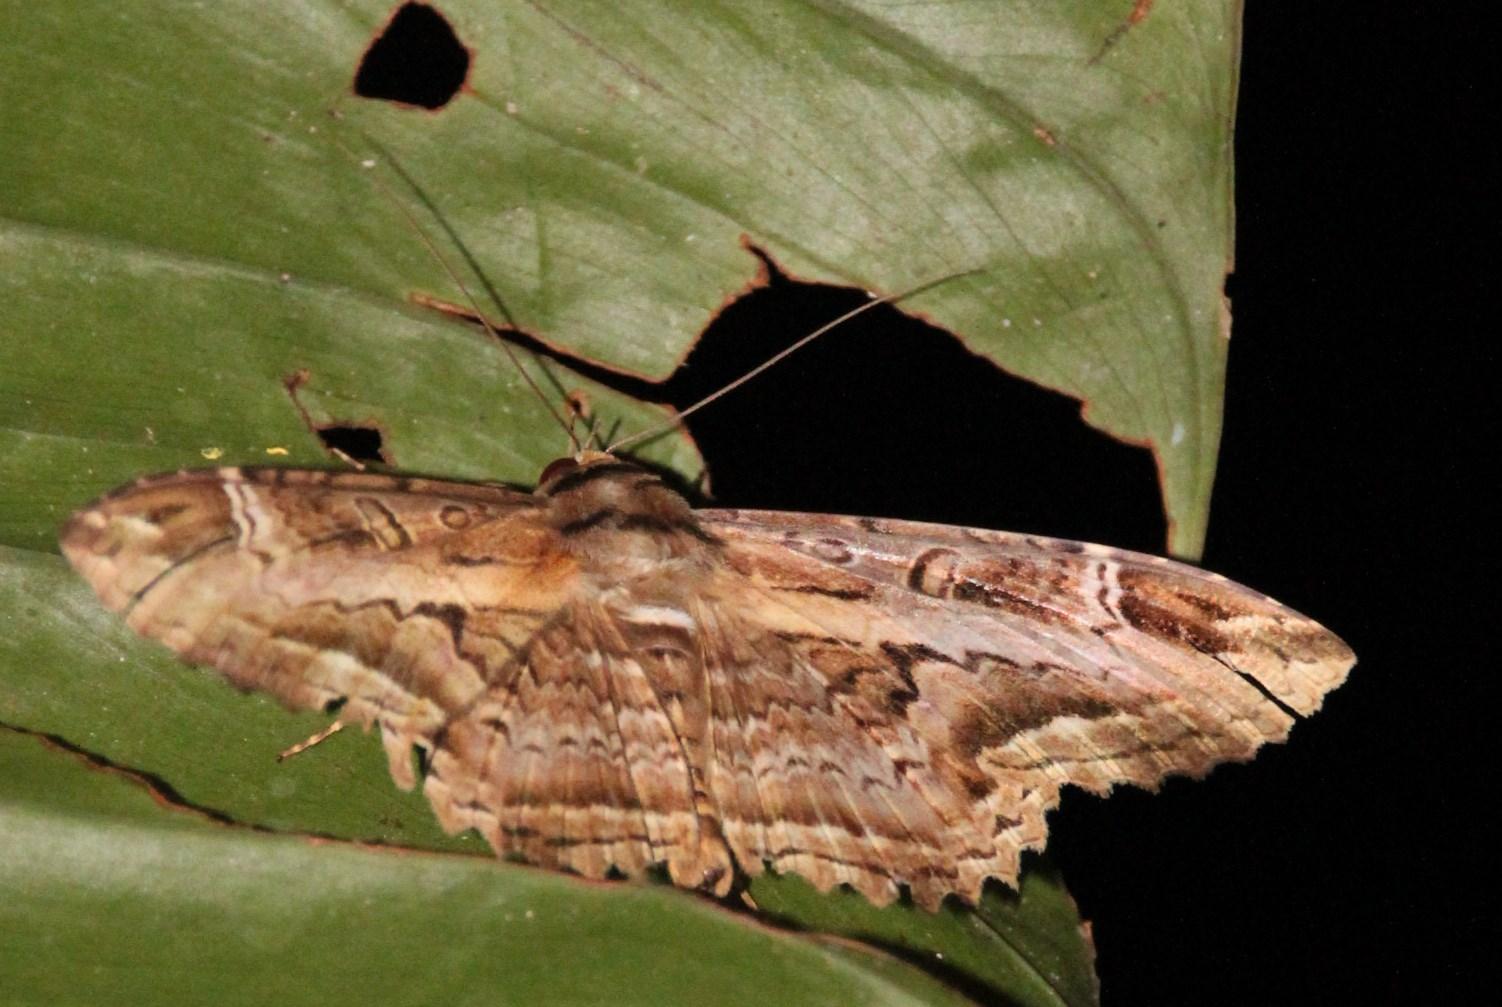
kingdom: Animalia
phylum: Arthropoda
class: Insecta
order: Lepidoptera
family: Noctuidae
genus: Ronania
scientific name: Ronania
